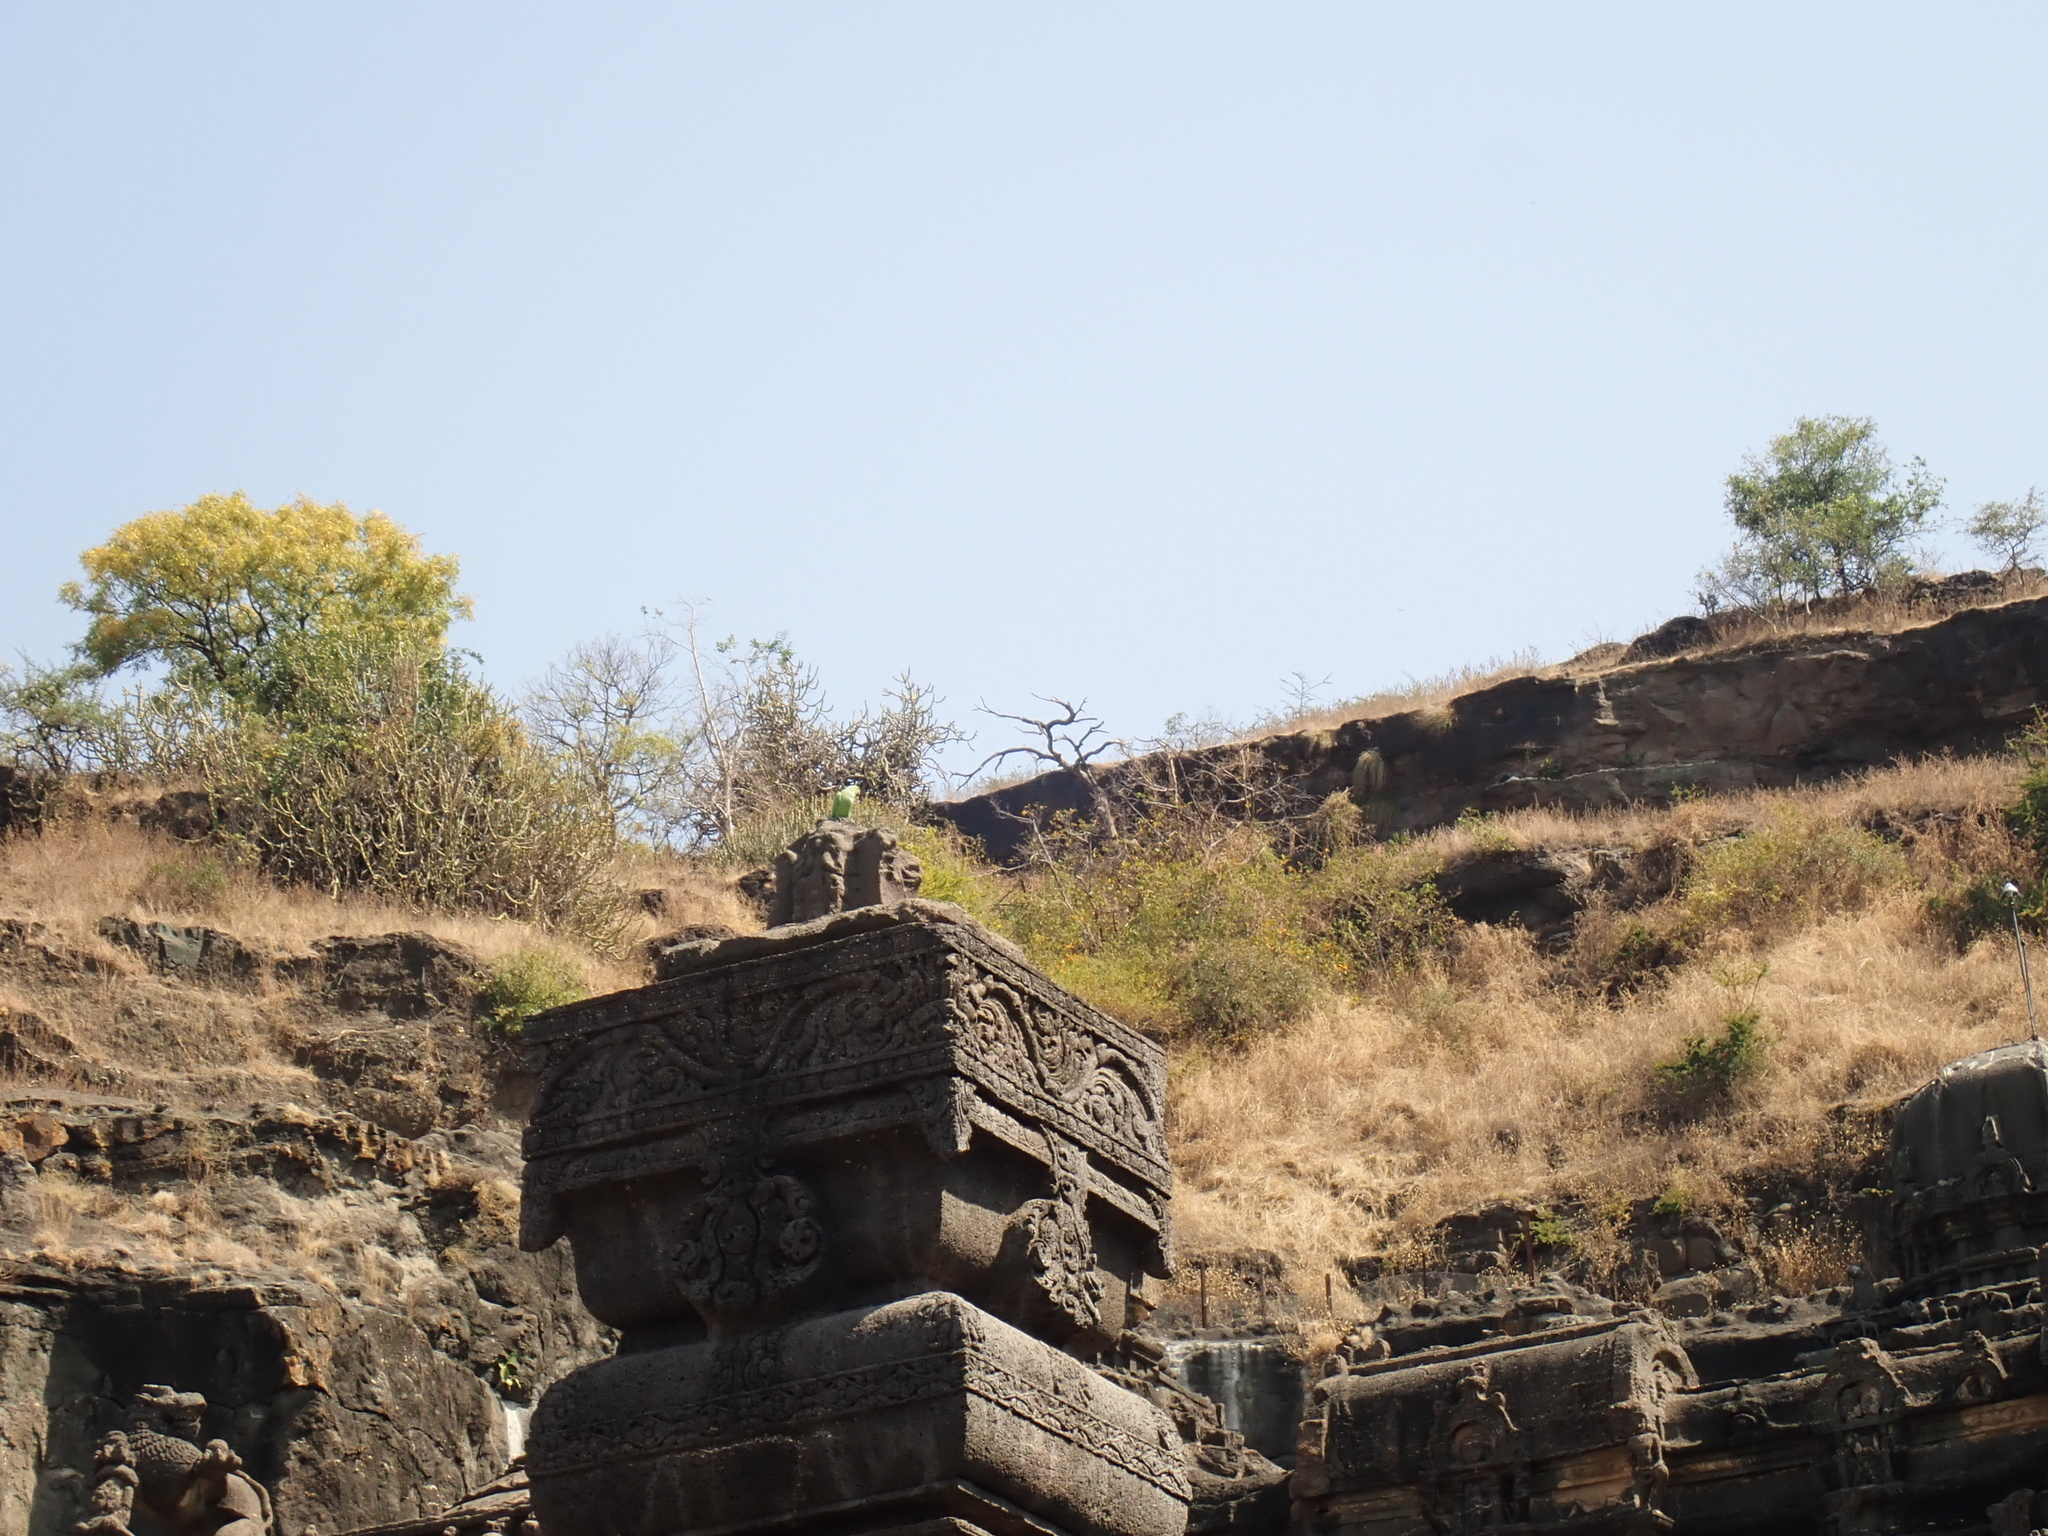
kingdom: Animalia
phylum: Chordata
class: Aves
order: Psittaciformes
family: Psittacidae
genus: Psittacula
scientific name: Psittacula krameri
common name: Rose-ringed parakeet
